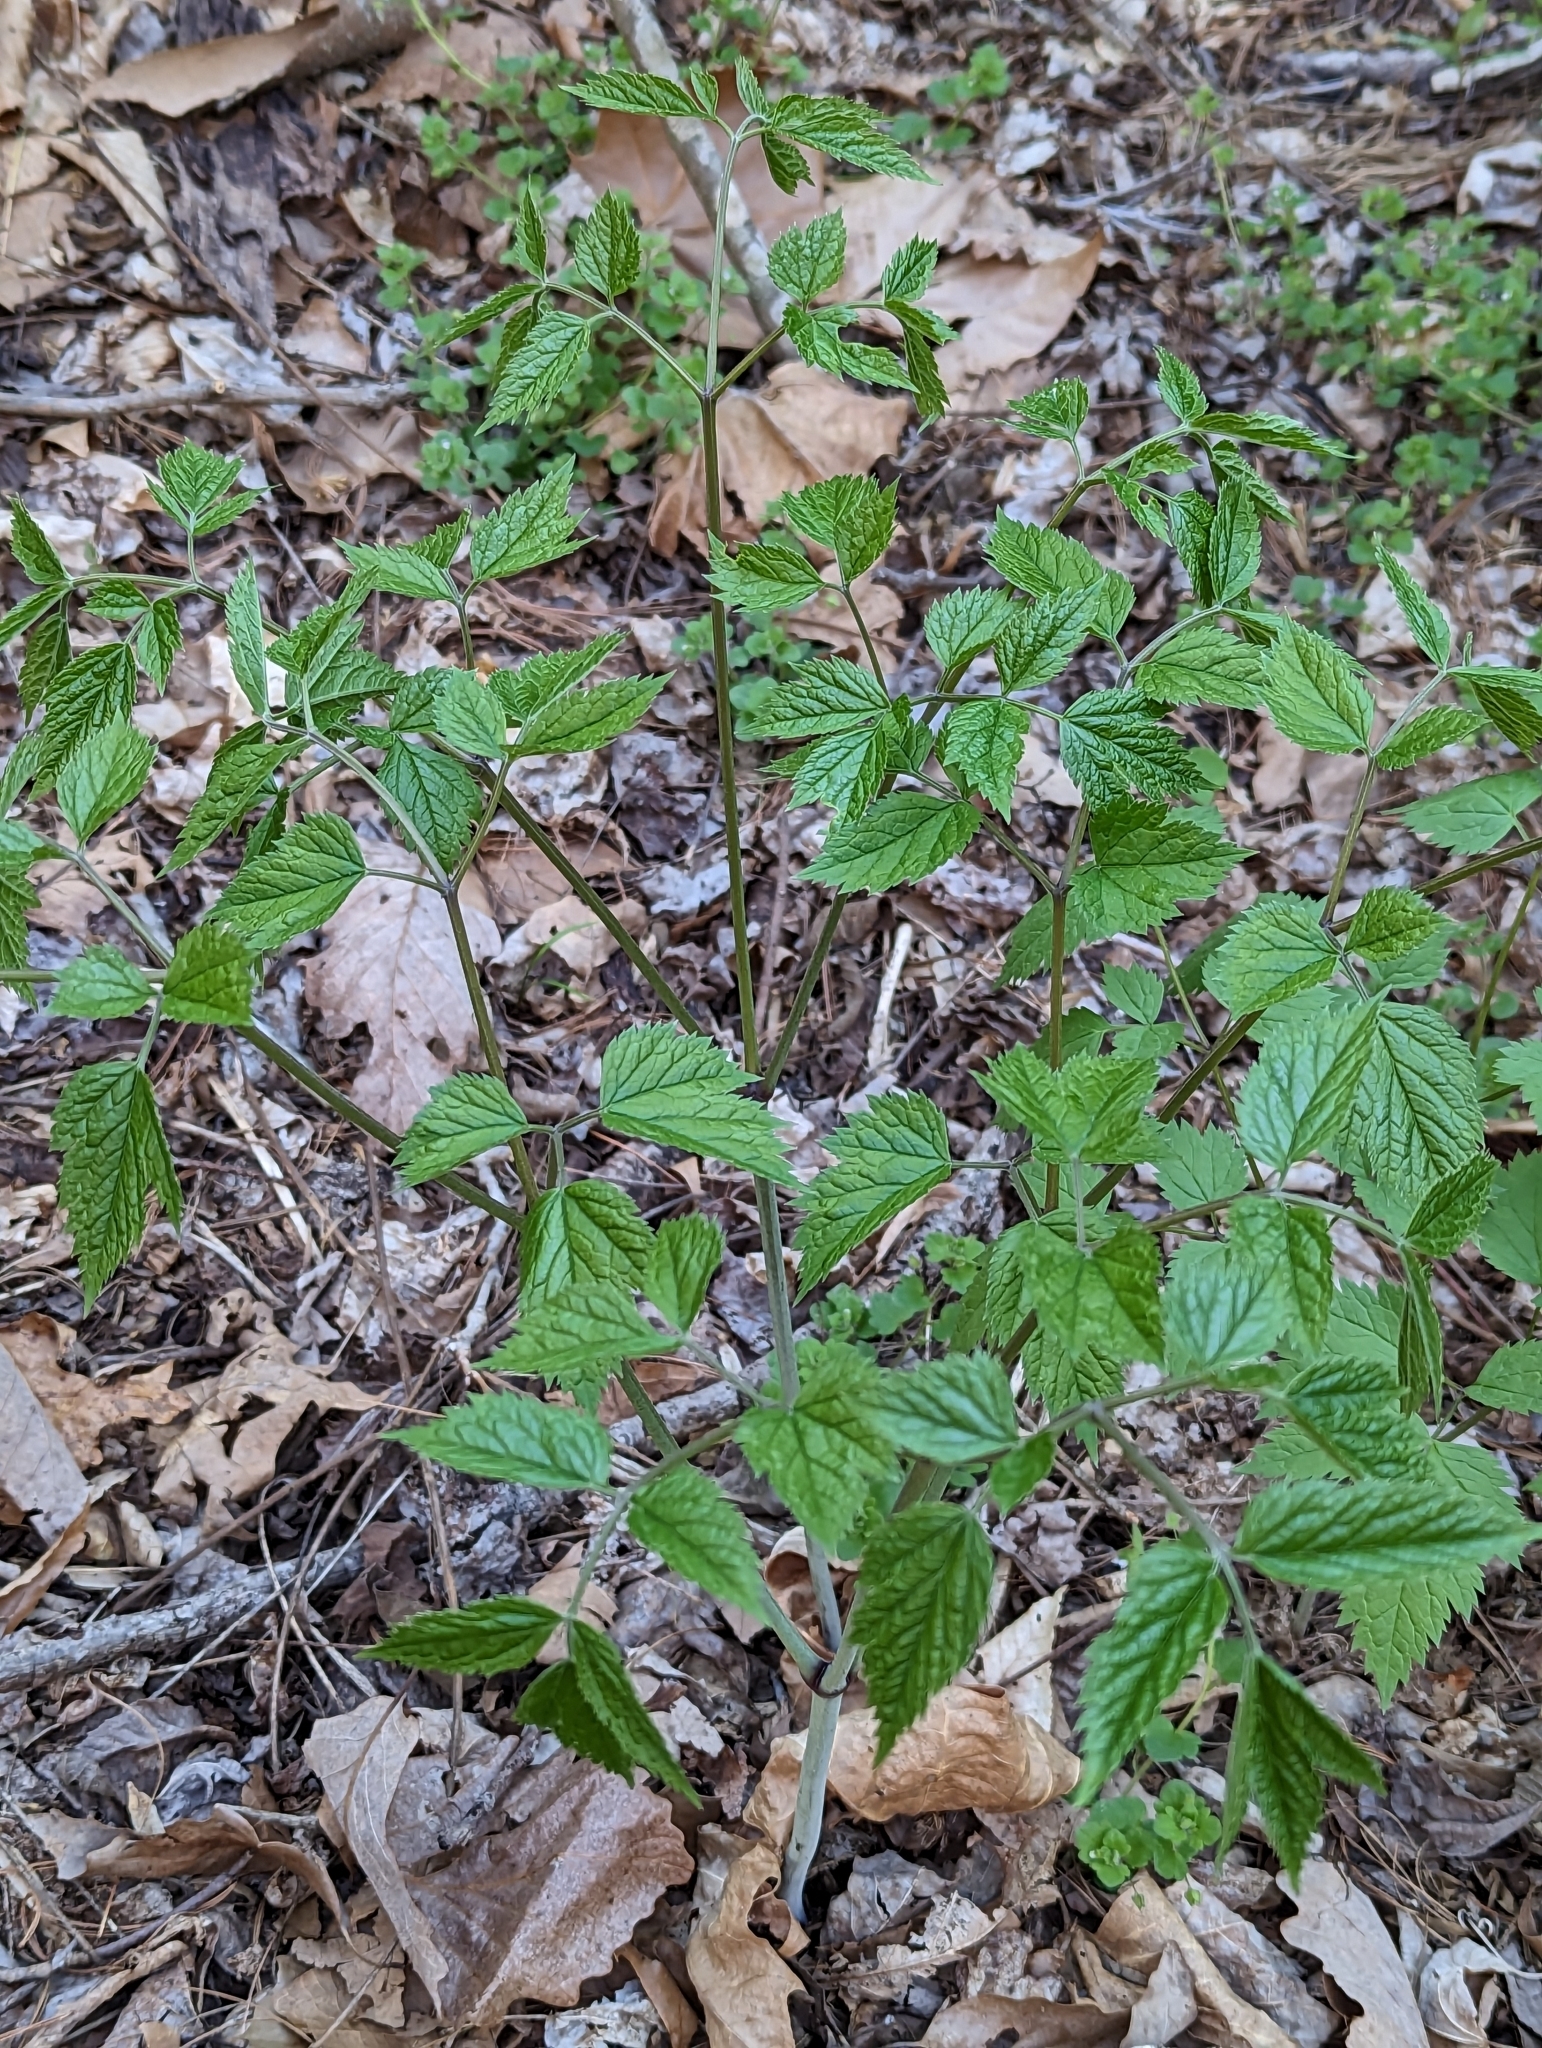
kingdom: Plantae
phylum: Tracheophyta
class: Magnoliopsida
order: Ranunculales
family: Ranunculaceae
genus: Actaea
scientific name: Actaea racemosa
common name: Black cohosh
